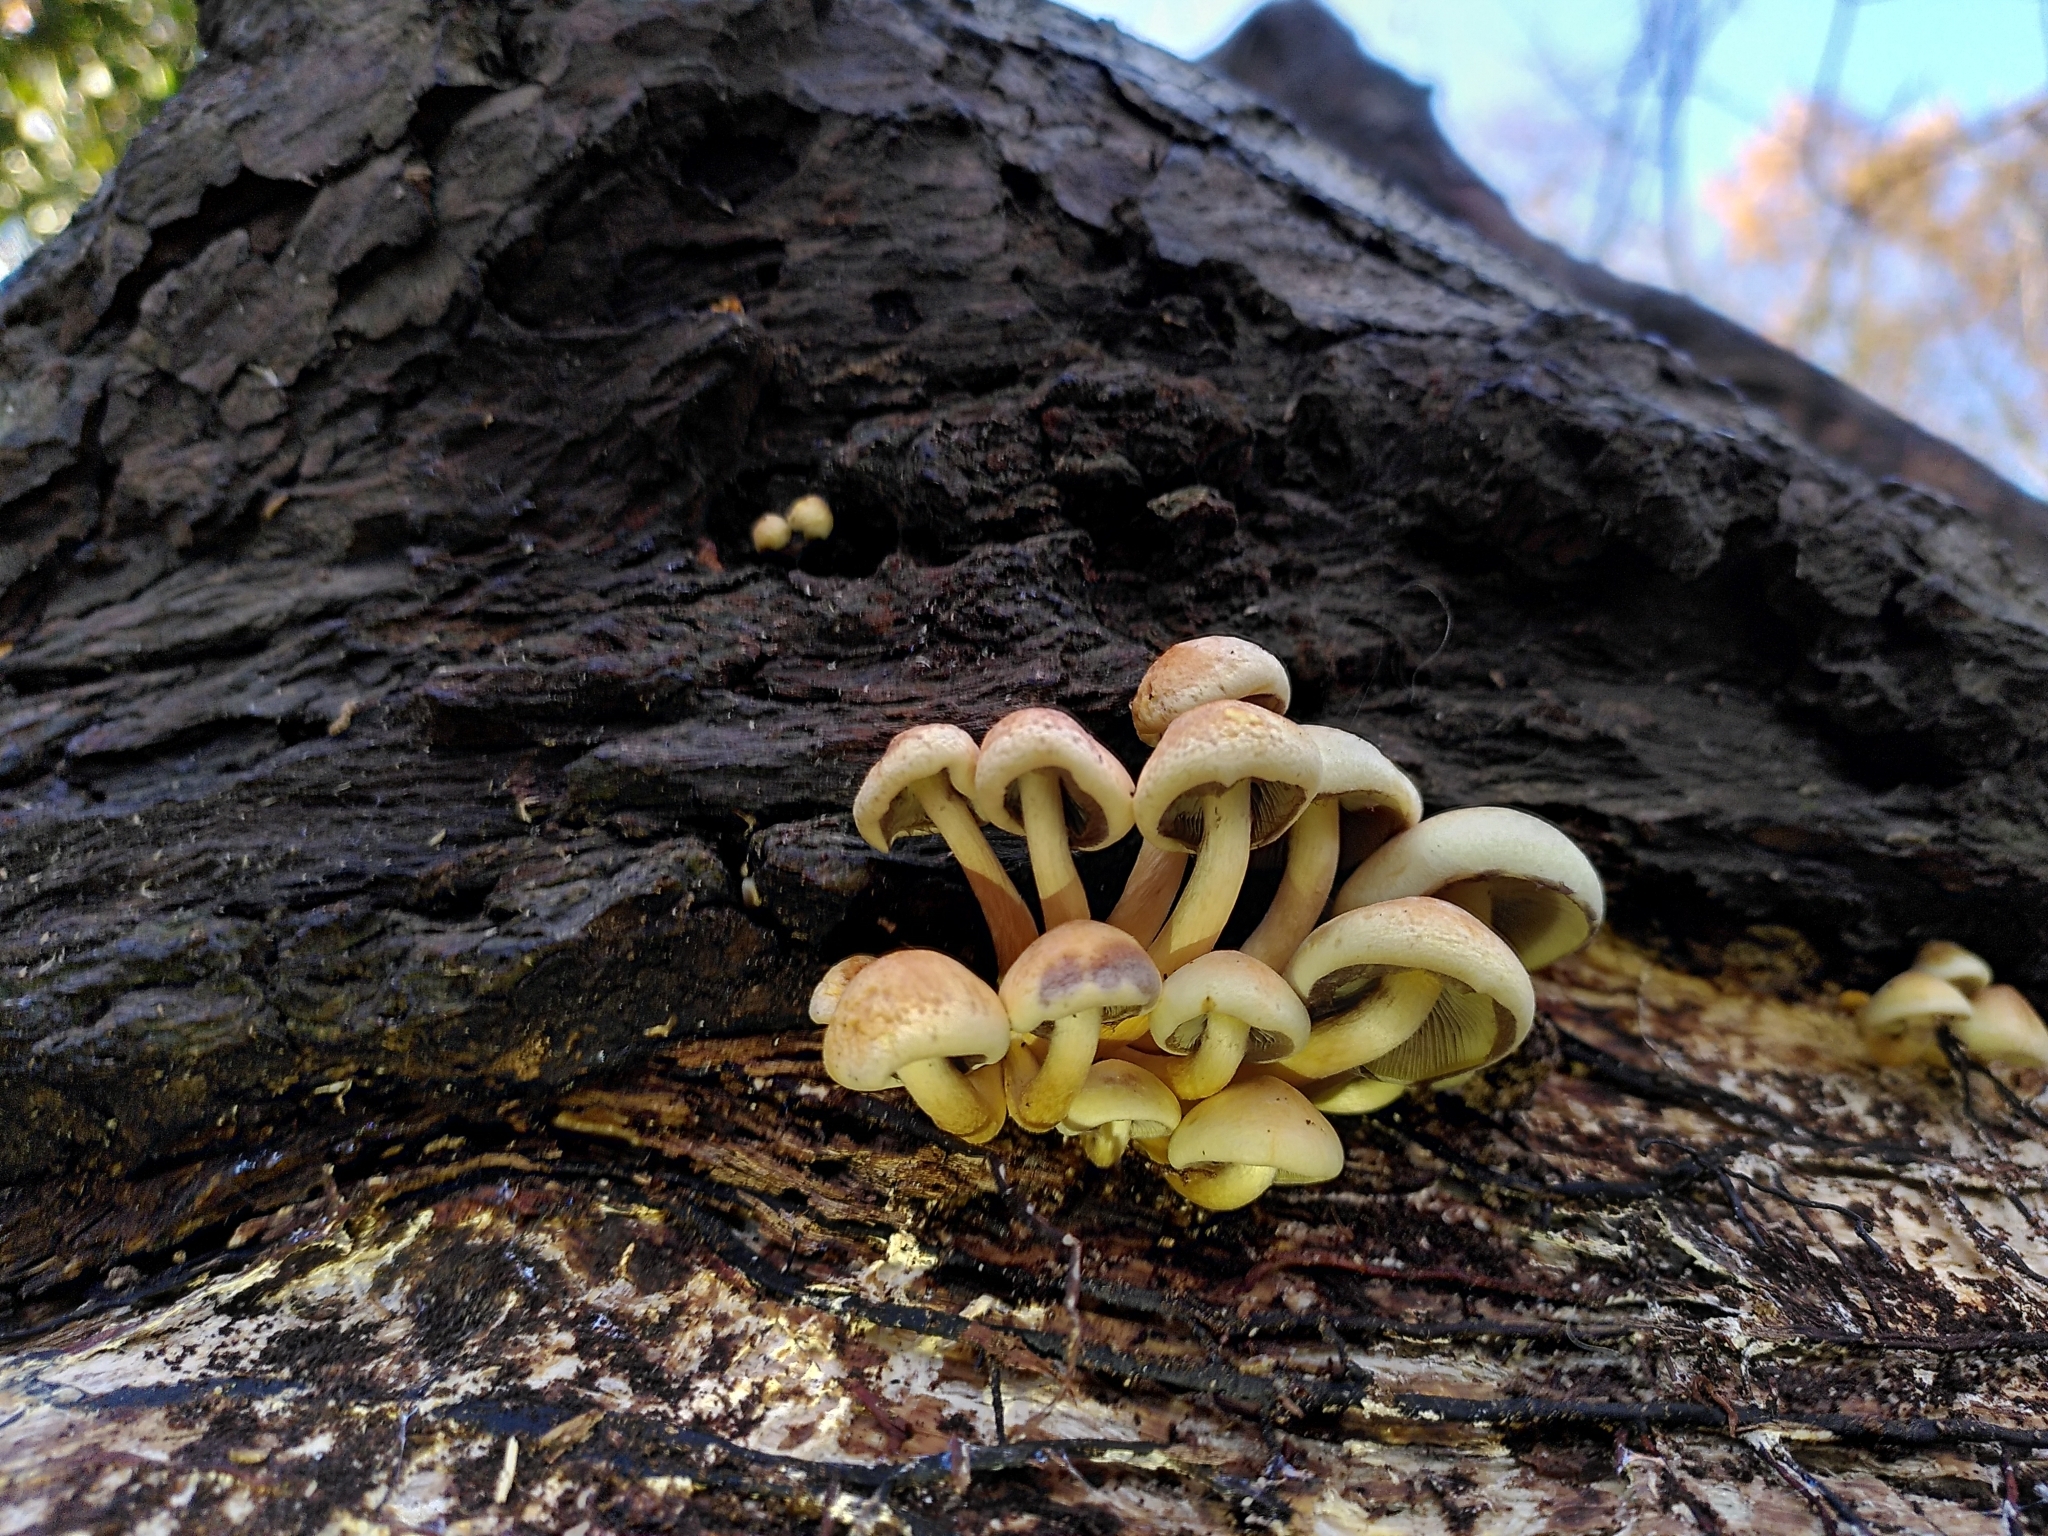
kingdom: Fungi
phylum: Basidiomycota
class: Agaricomycetes
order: Agaricales
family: Strophariaceae
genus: Hypholoma
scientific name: Hypholoma fasciculare
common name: Sulphur tuft
